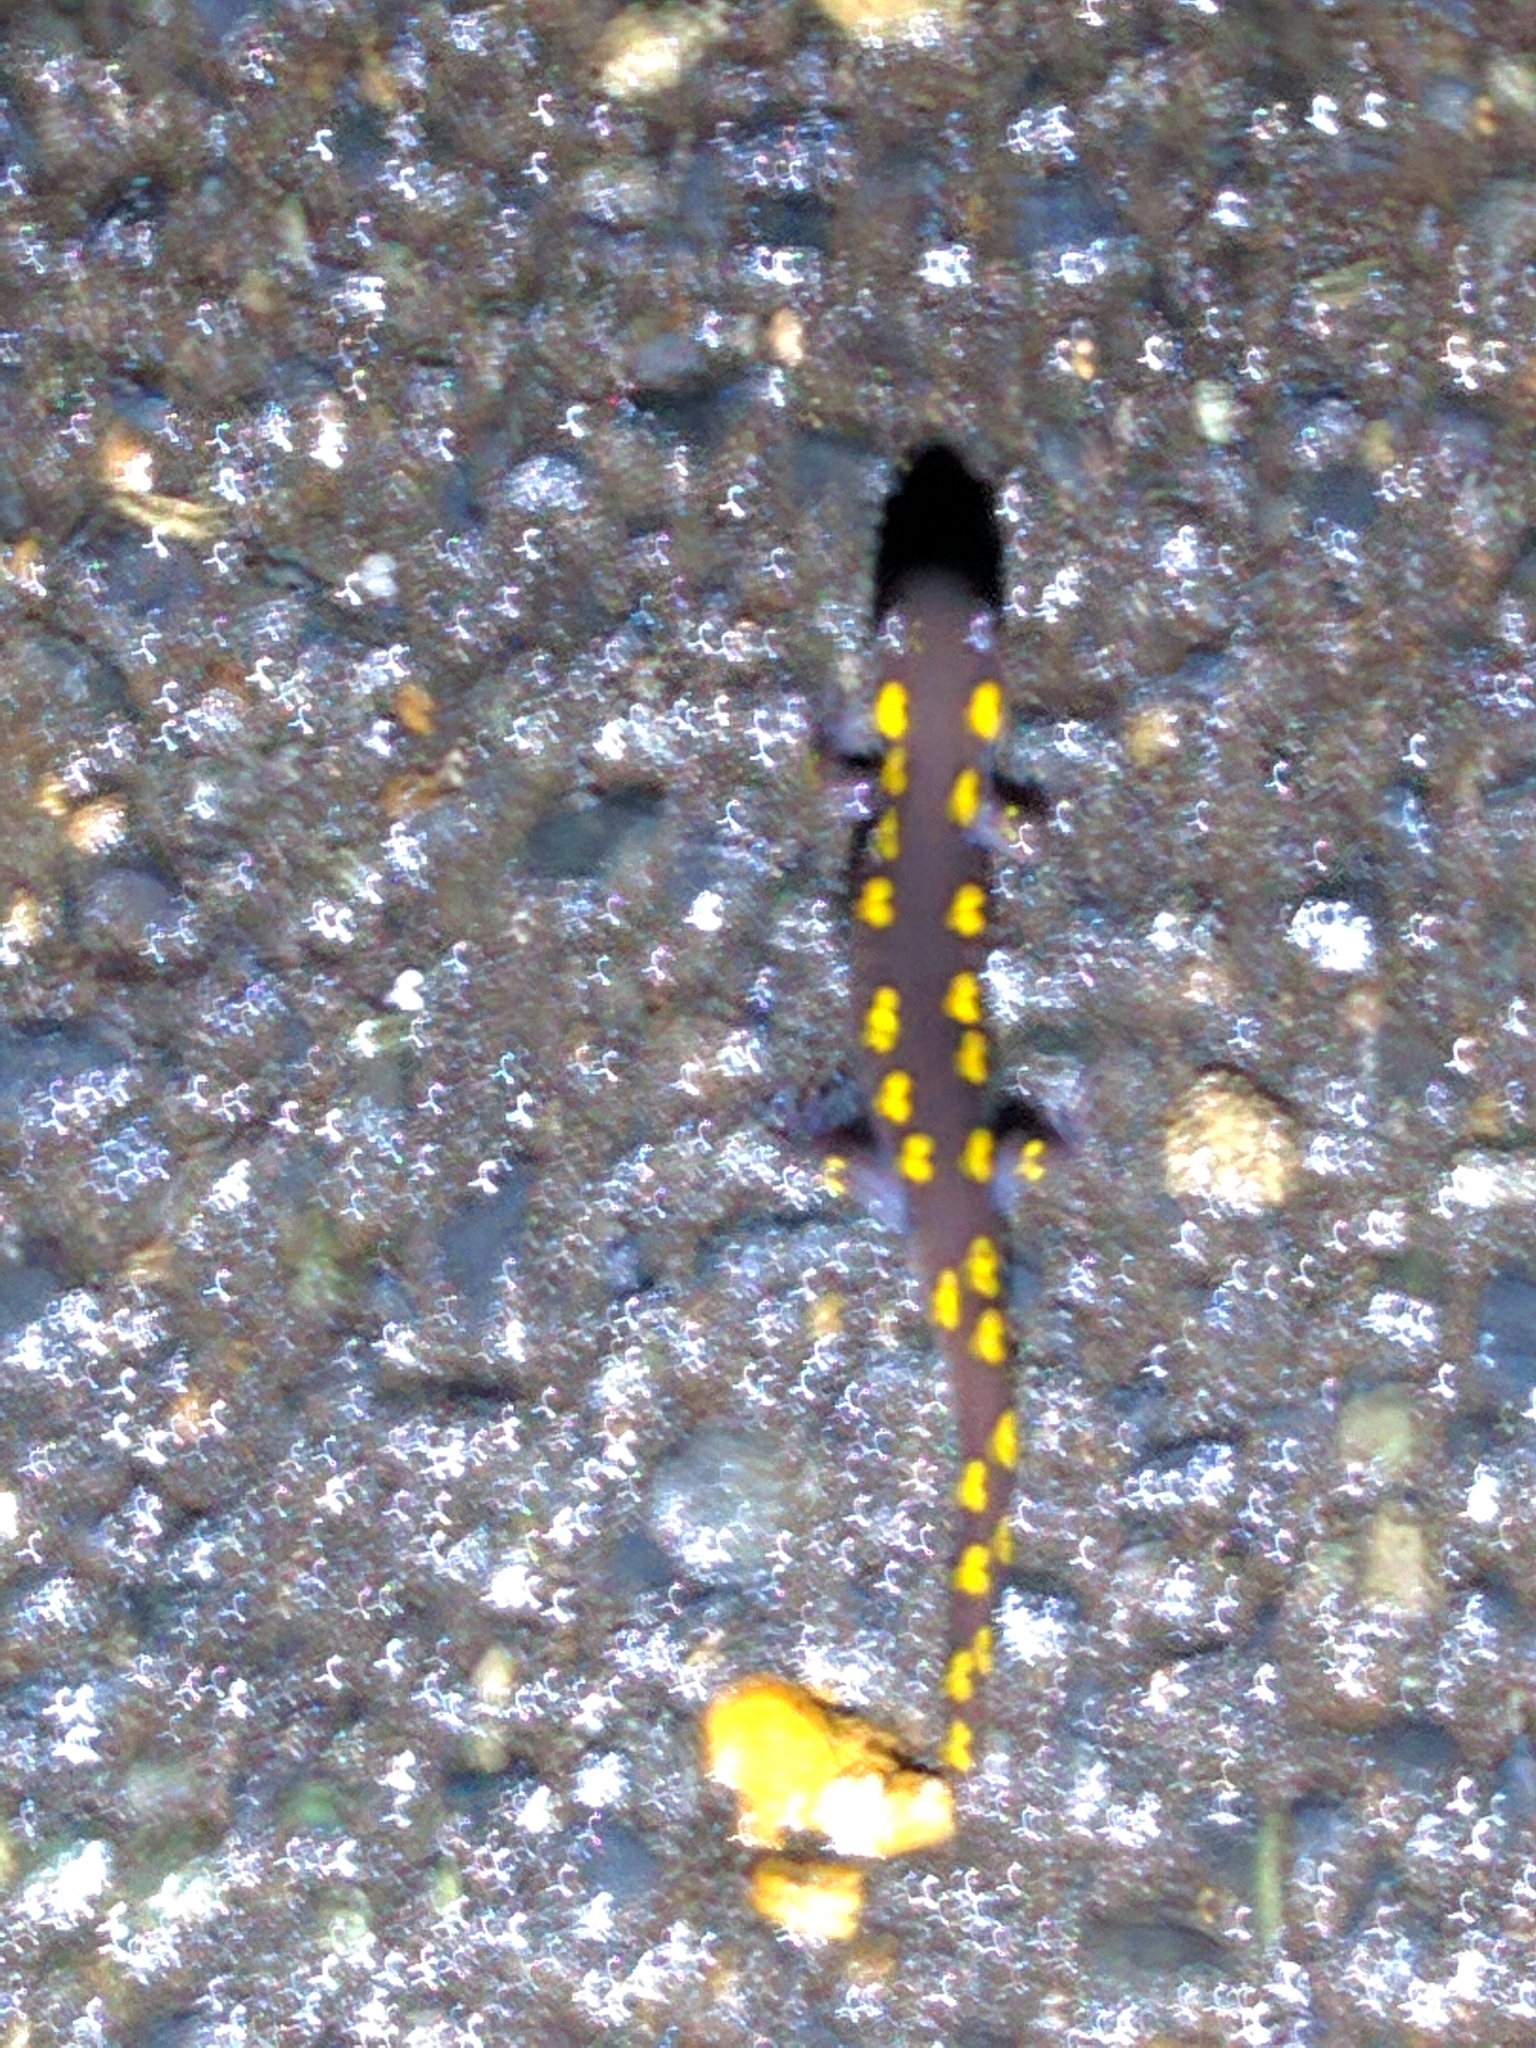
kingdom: Animalia
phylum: Chordata
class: Amphibia
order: Caudata
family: Ambystomatidae
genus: Ambystoma
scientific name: Ambystoma maculatum
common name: Spotted salamander
